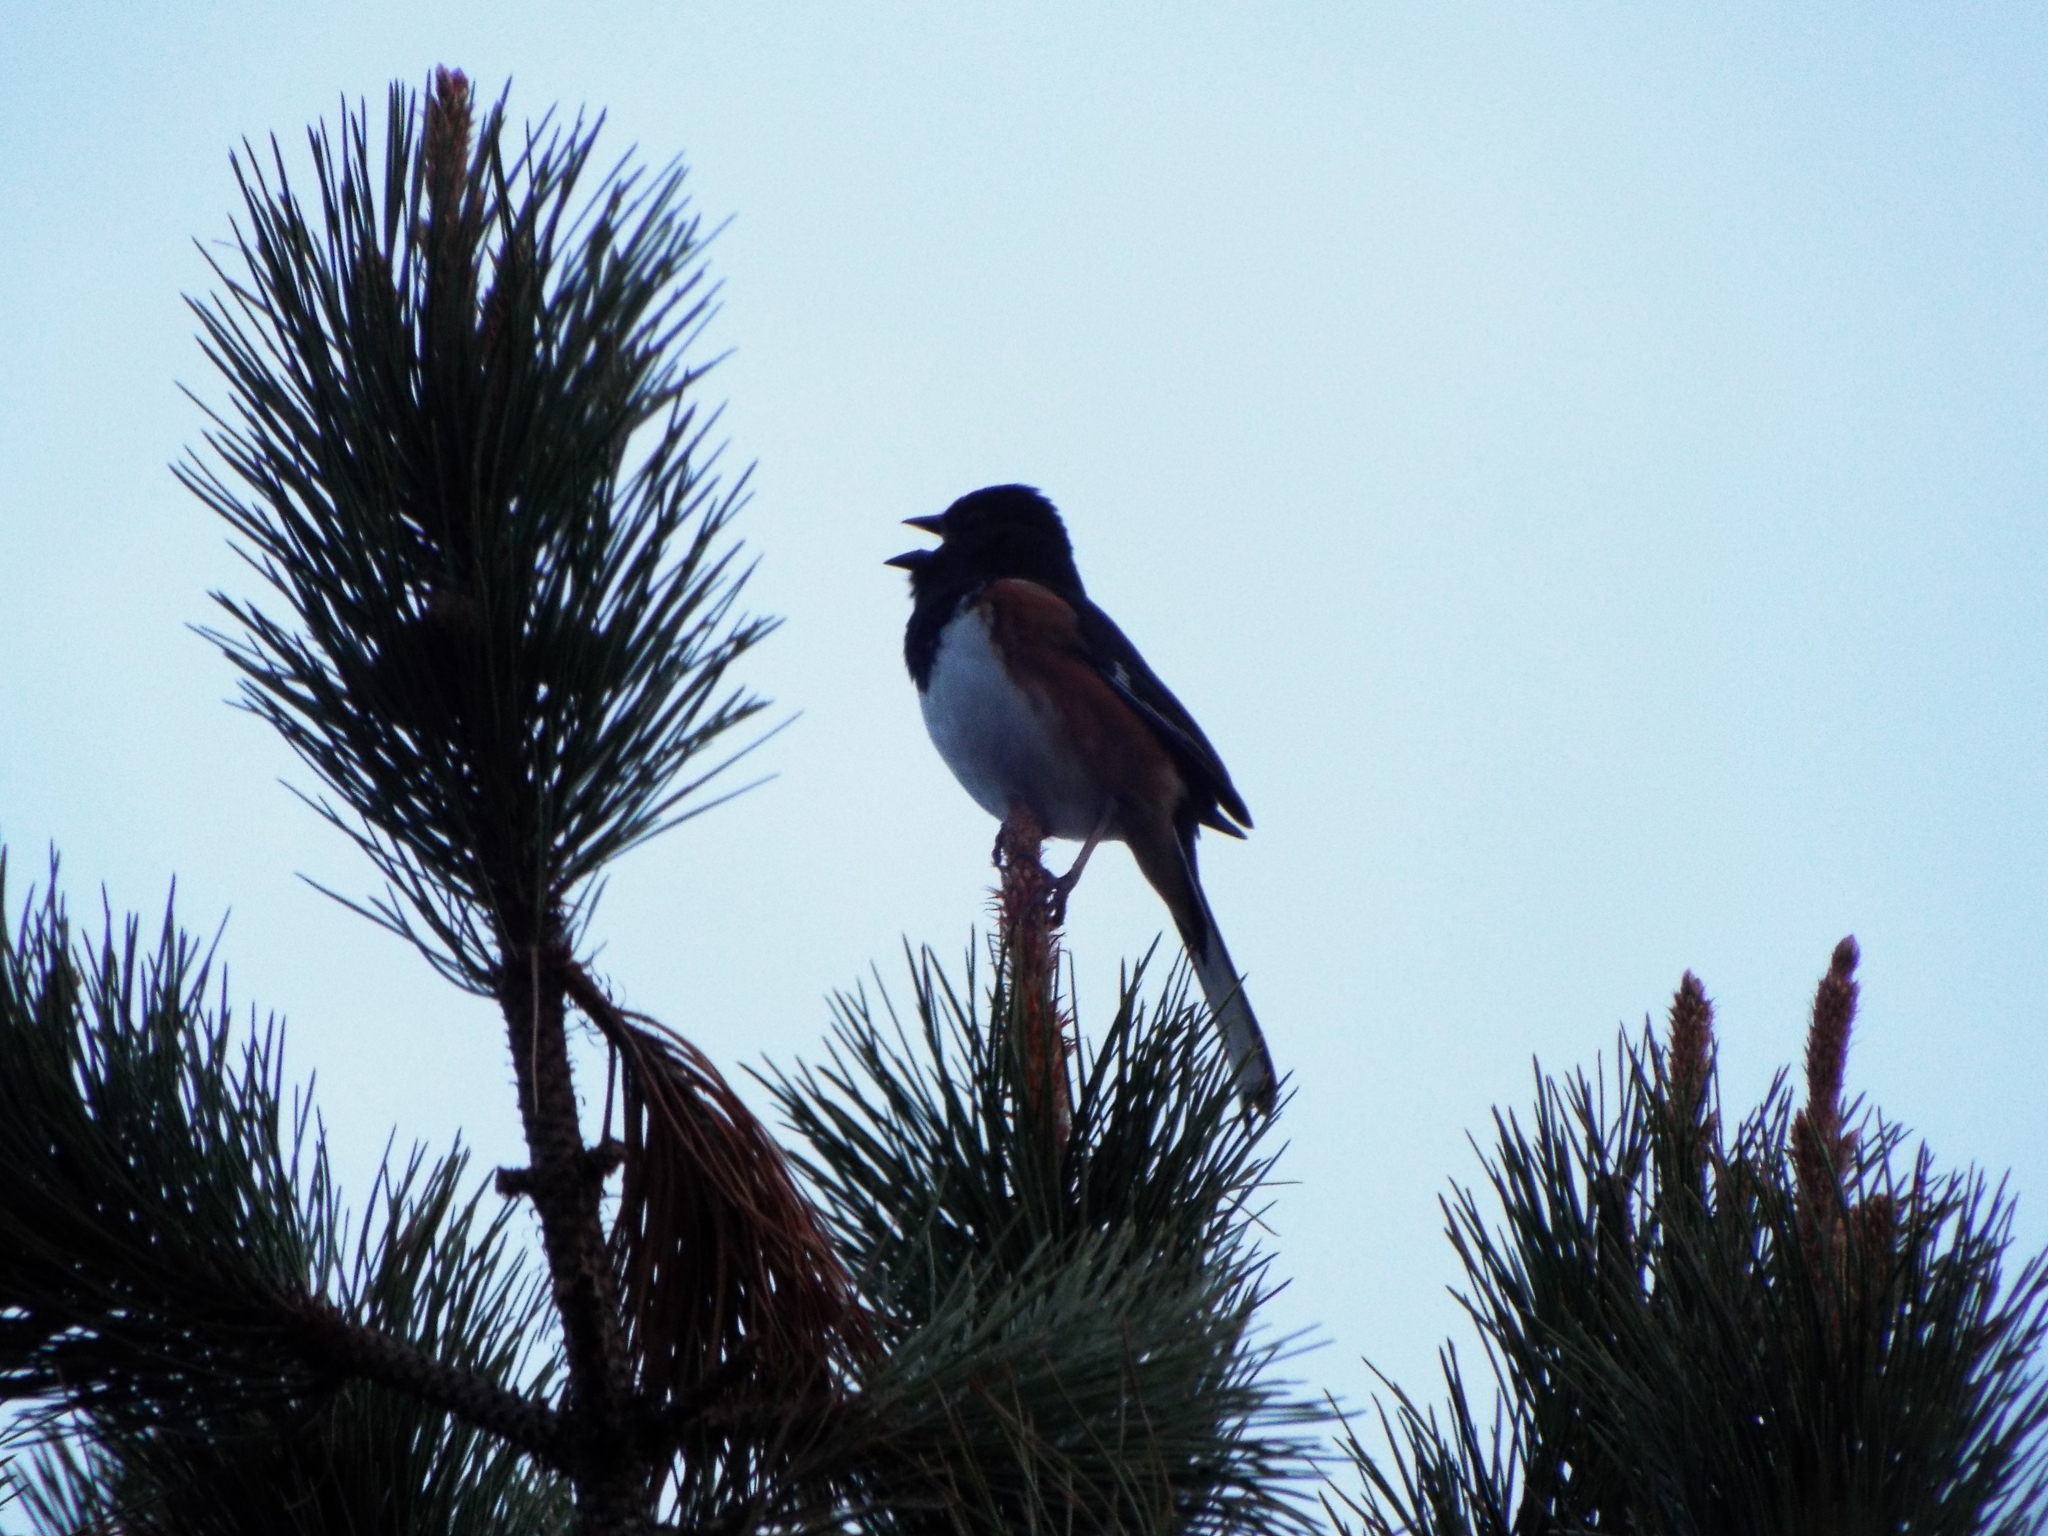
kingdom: Animalia
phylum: Chordata
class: Aves
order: Passeriformes
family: Passerellidae
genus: Pipilo
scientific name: Pipilo erythrophthalmus
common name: Eastern towhee
